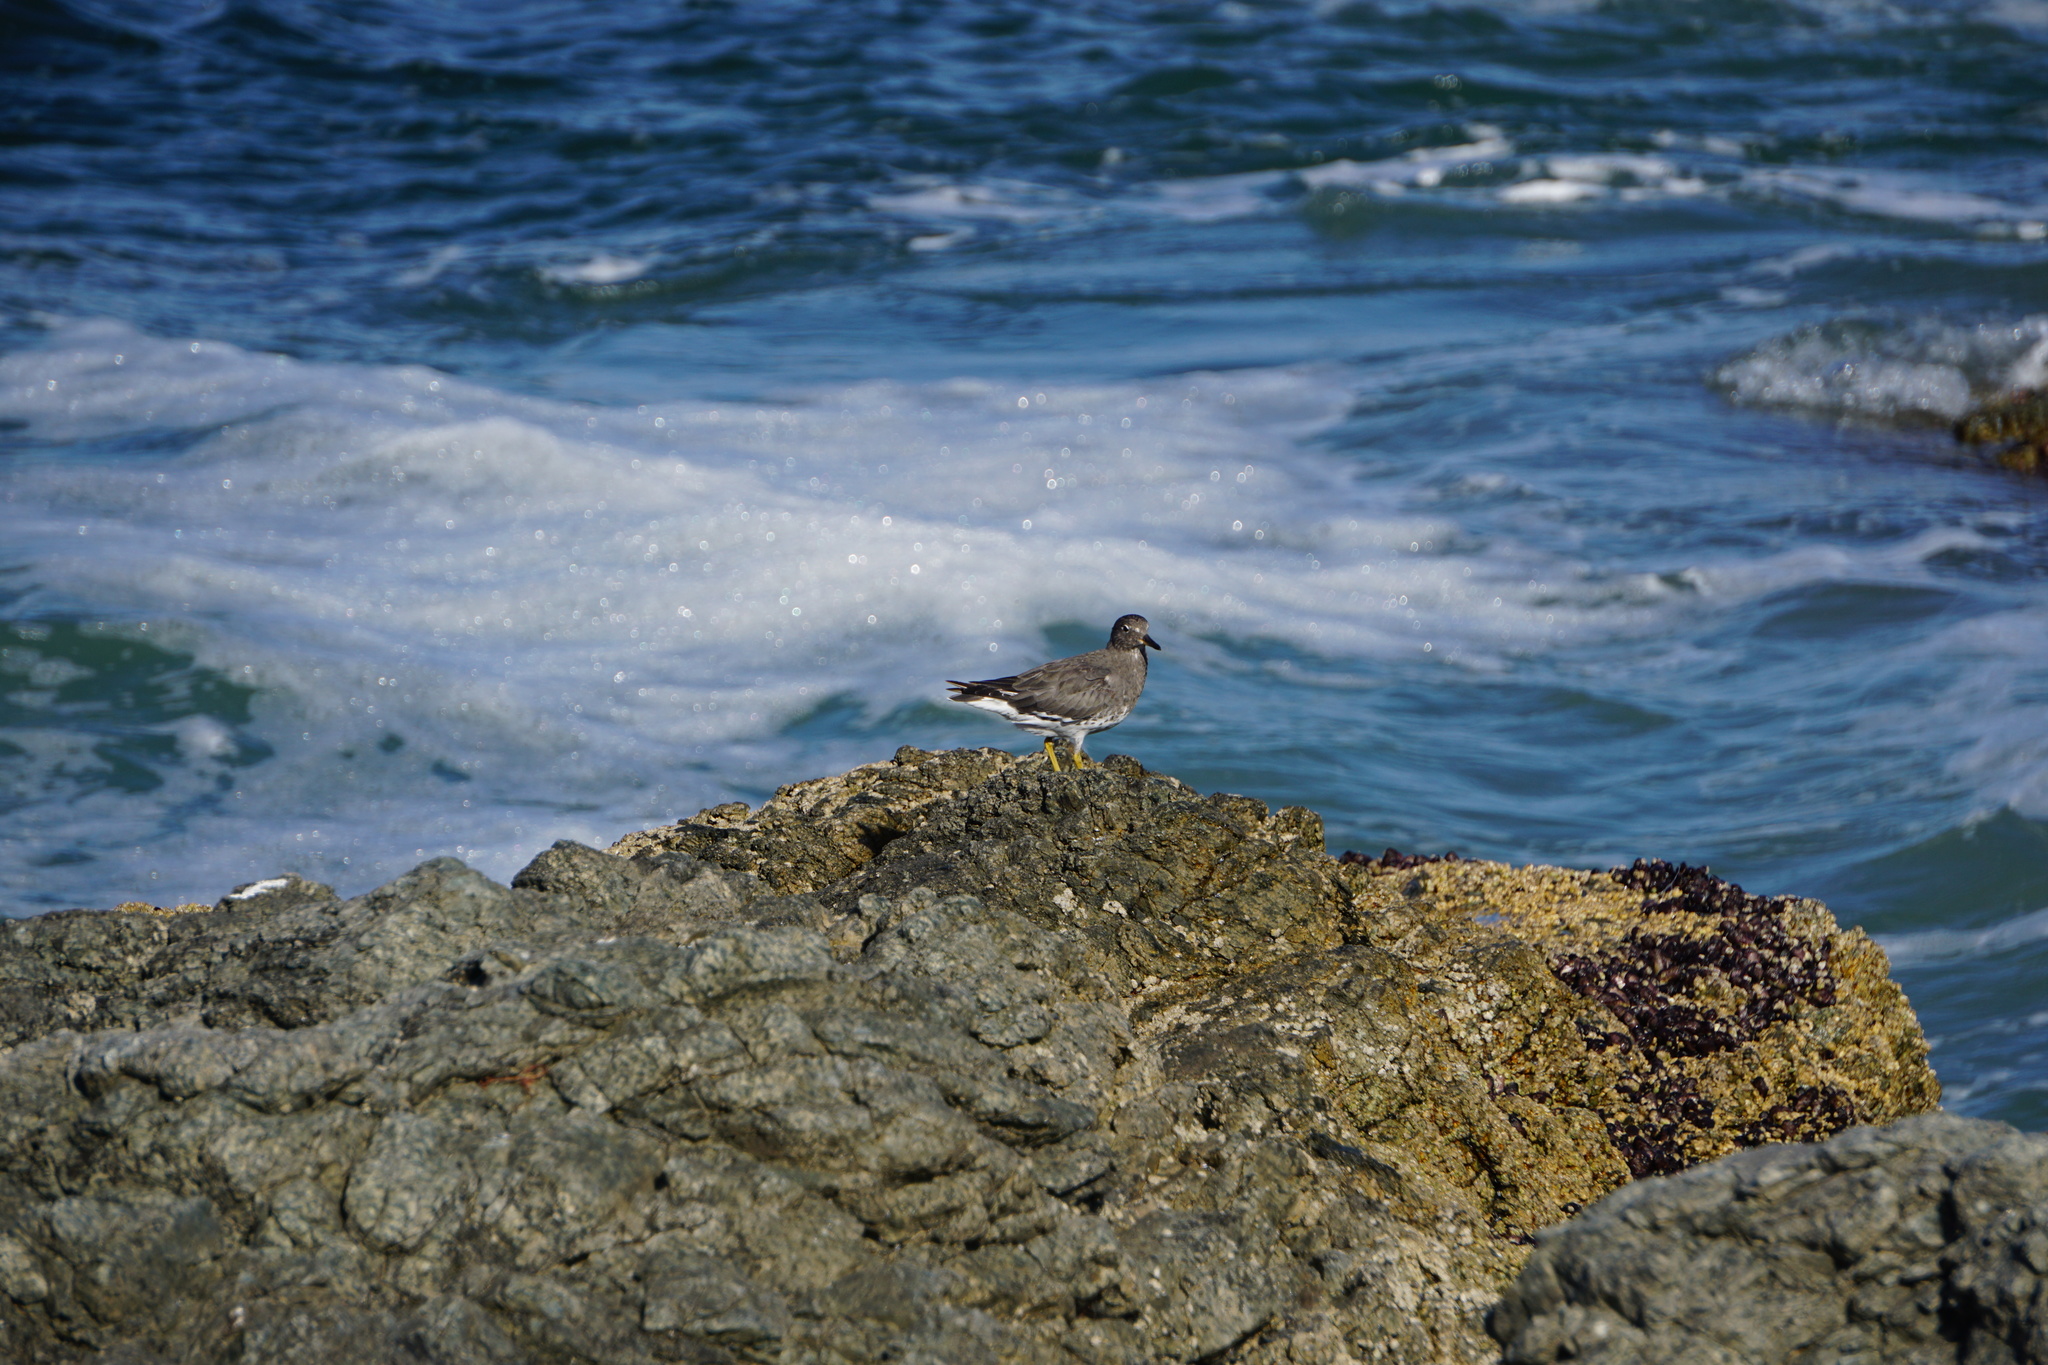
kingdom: Animalia
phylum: Chordata
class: Aves
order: Charadriiformes
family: Scolopacidae
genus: Calidris
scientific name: Calidris virgata
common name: Surfbird
